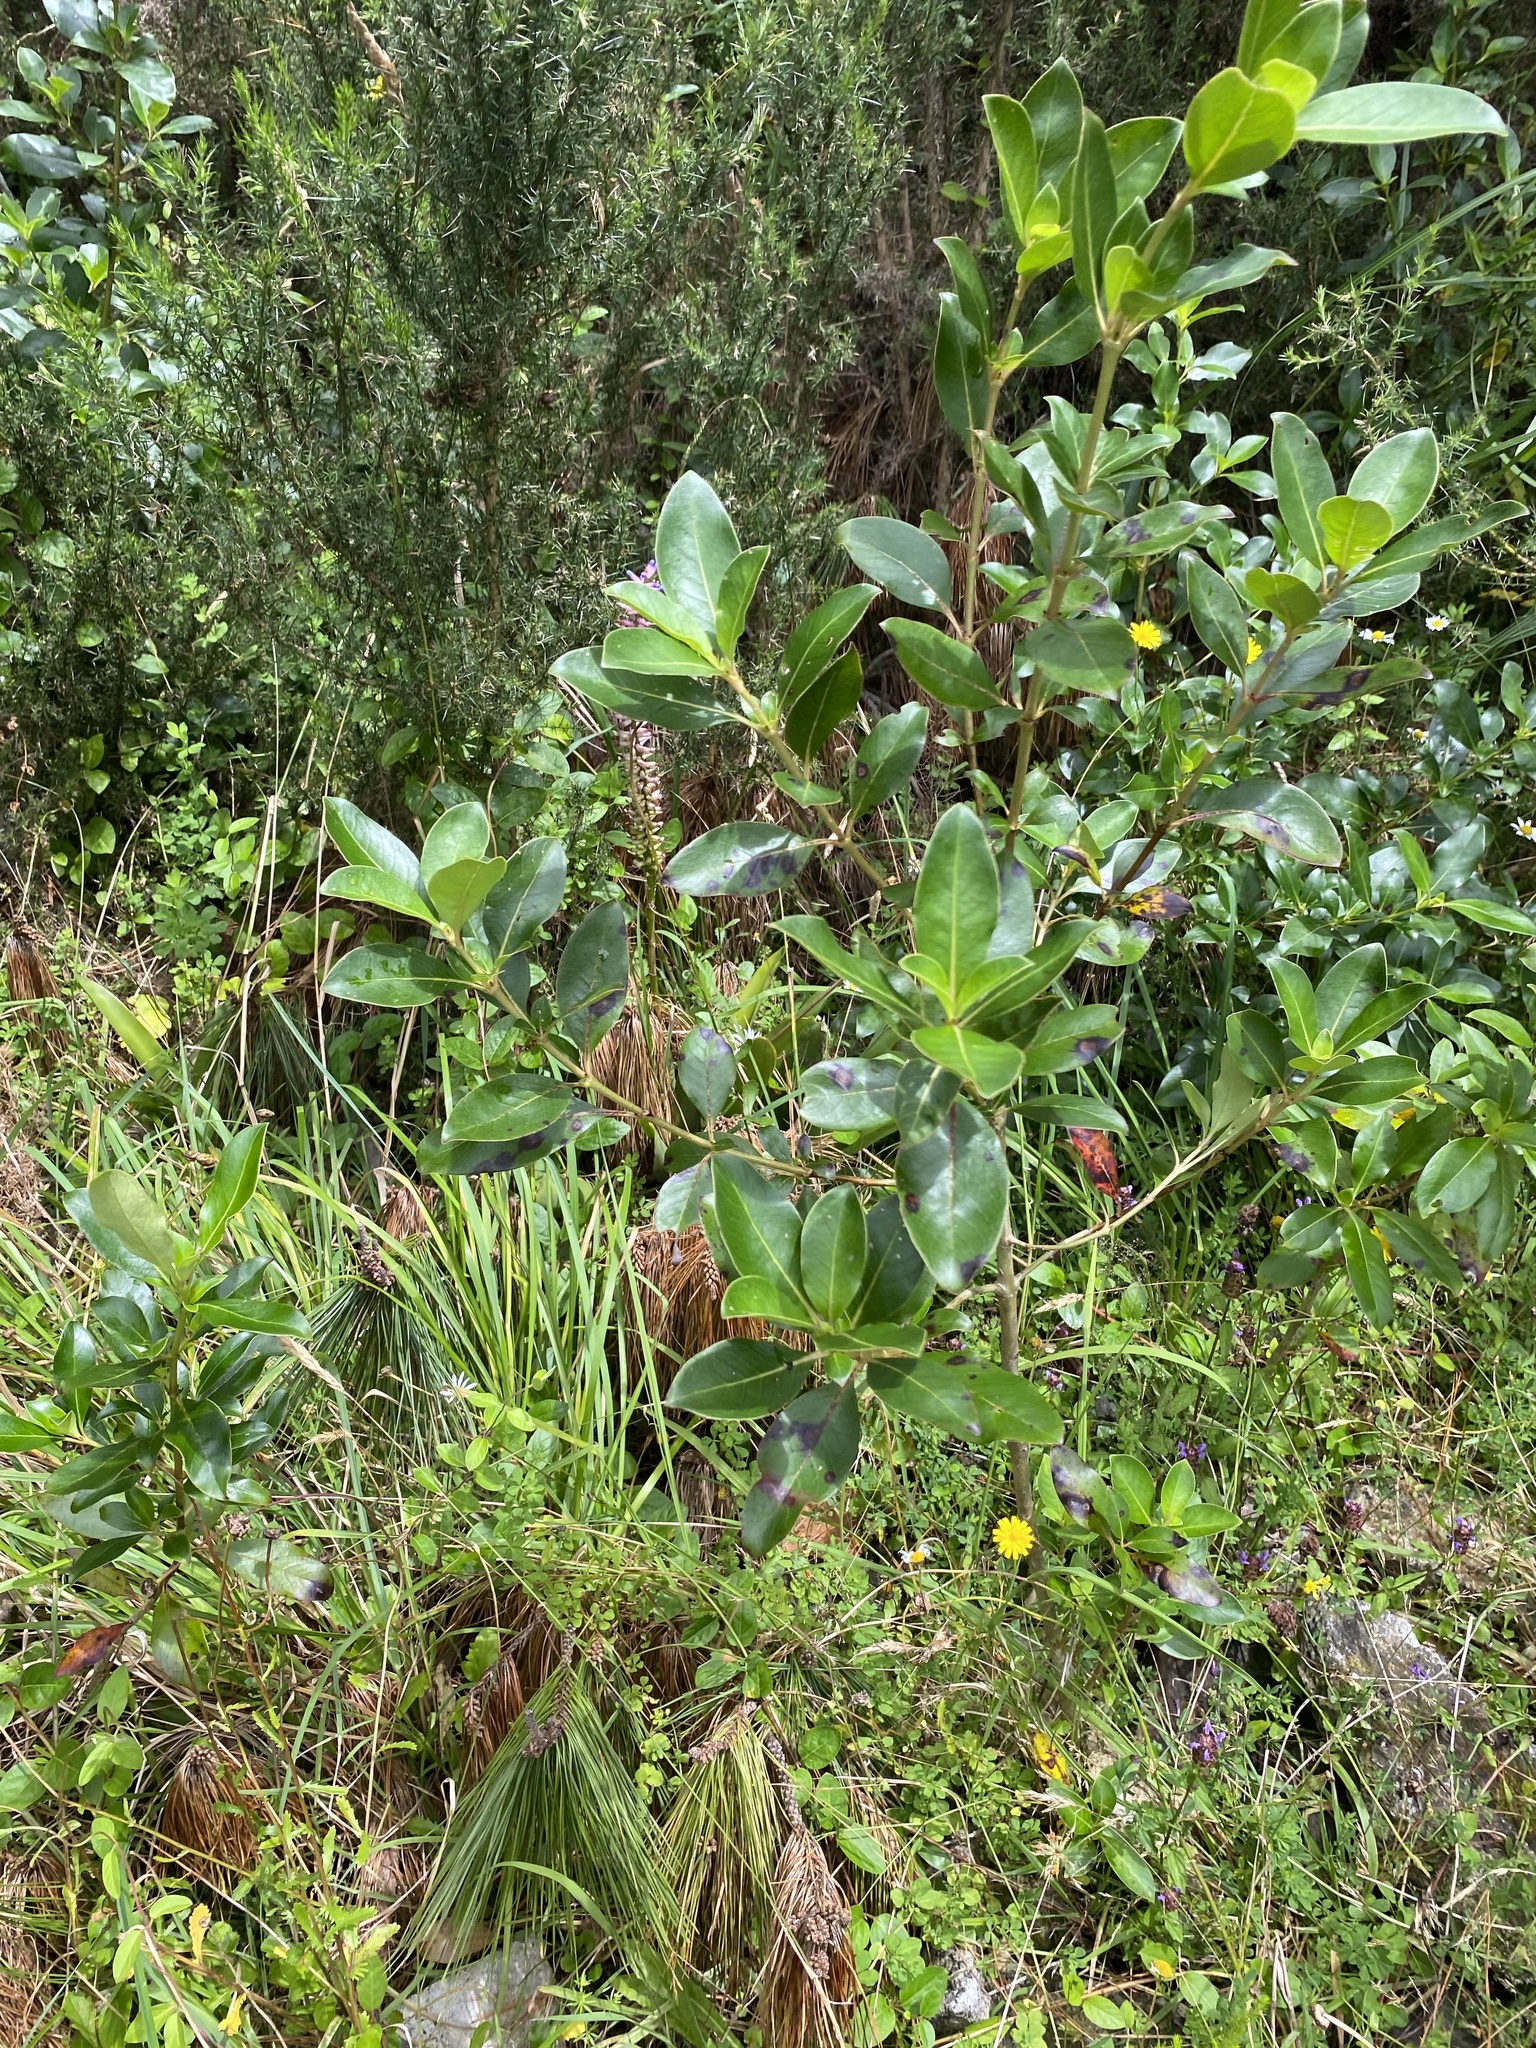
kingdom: Plantae
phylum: Tracheophyta
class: Liliopsida
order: Poales
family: Bromeliaceae
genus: Aechmea
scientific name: Aechmea gamosepala
